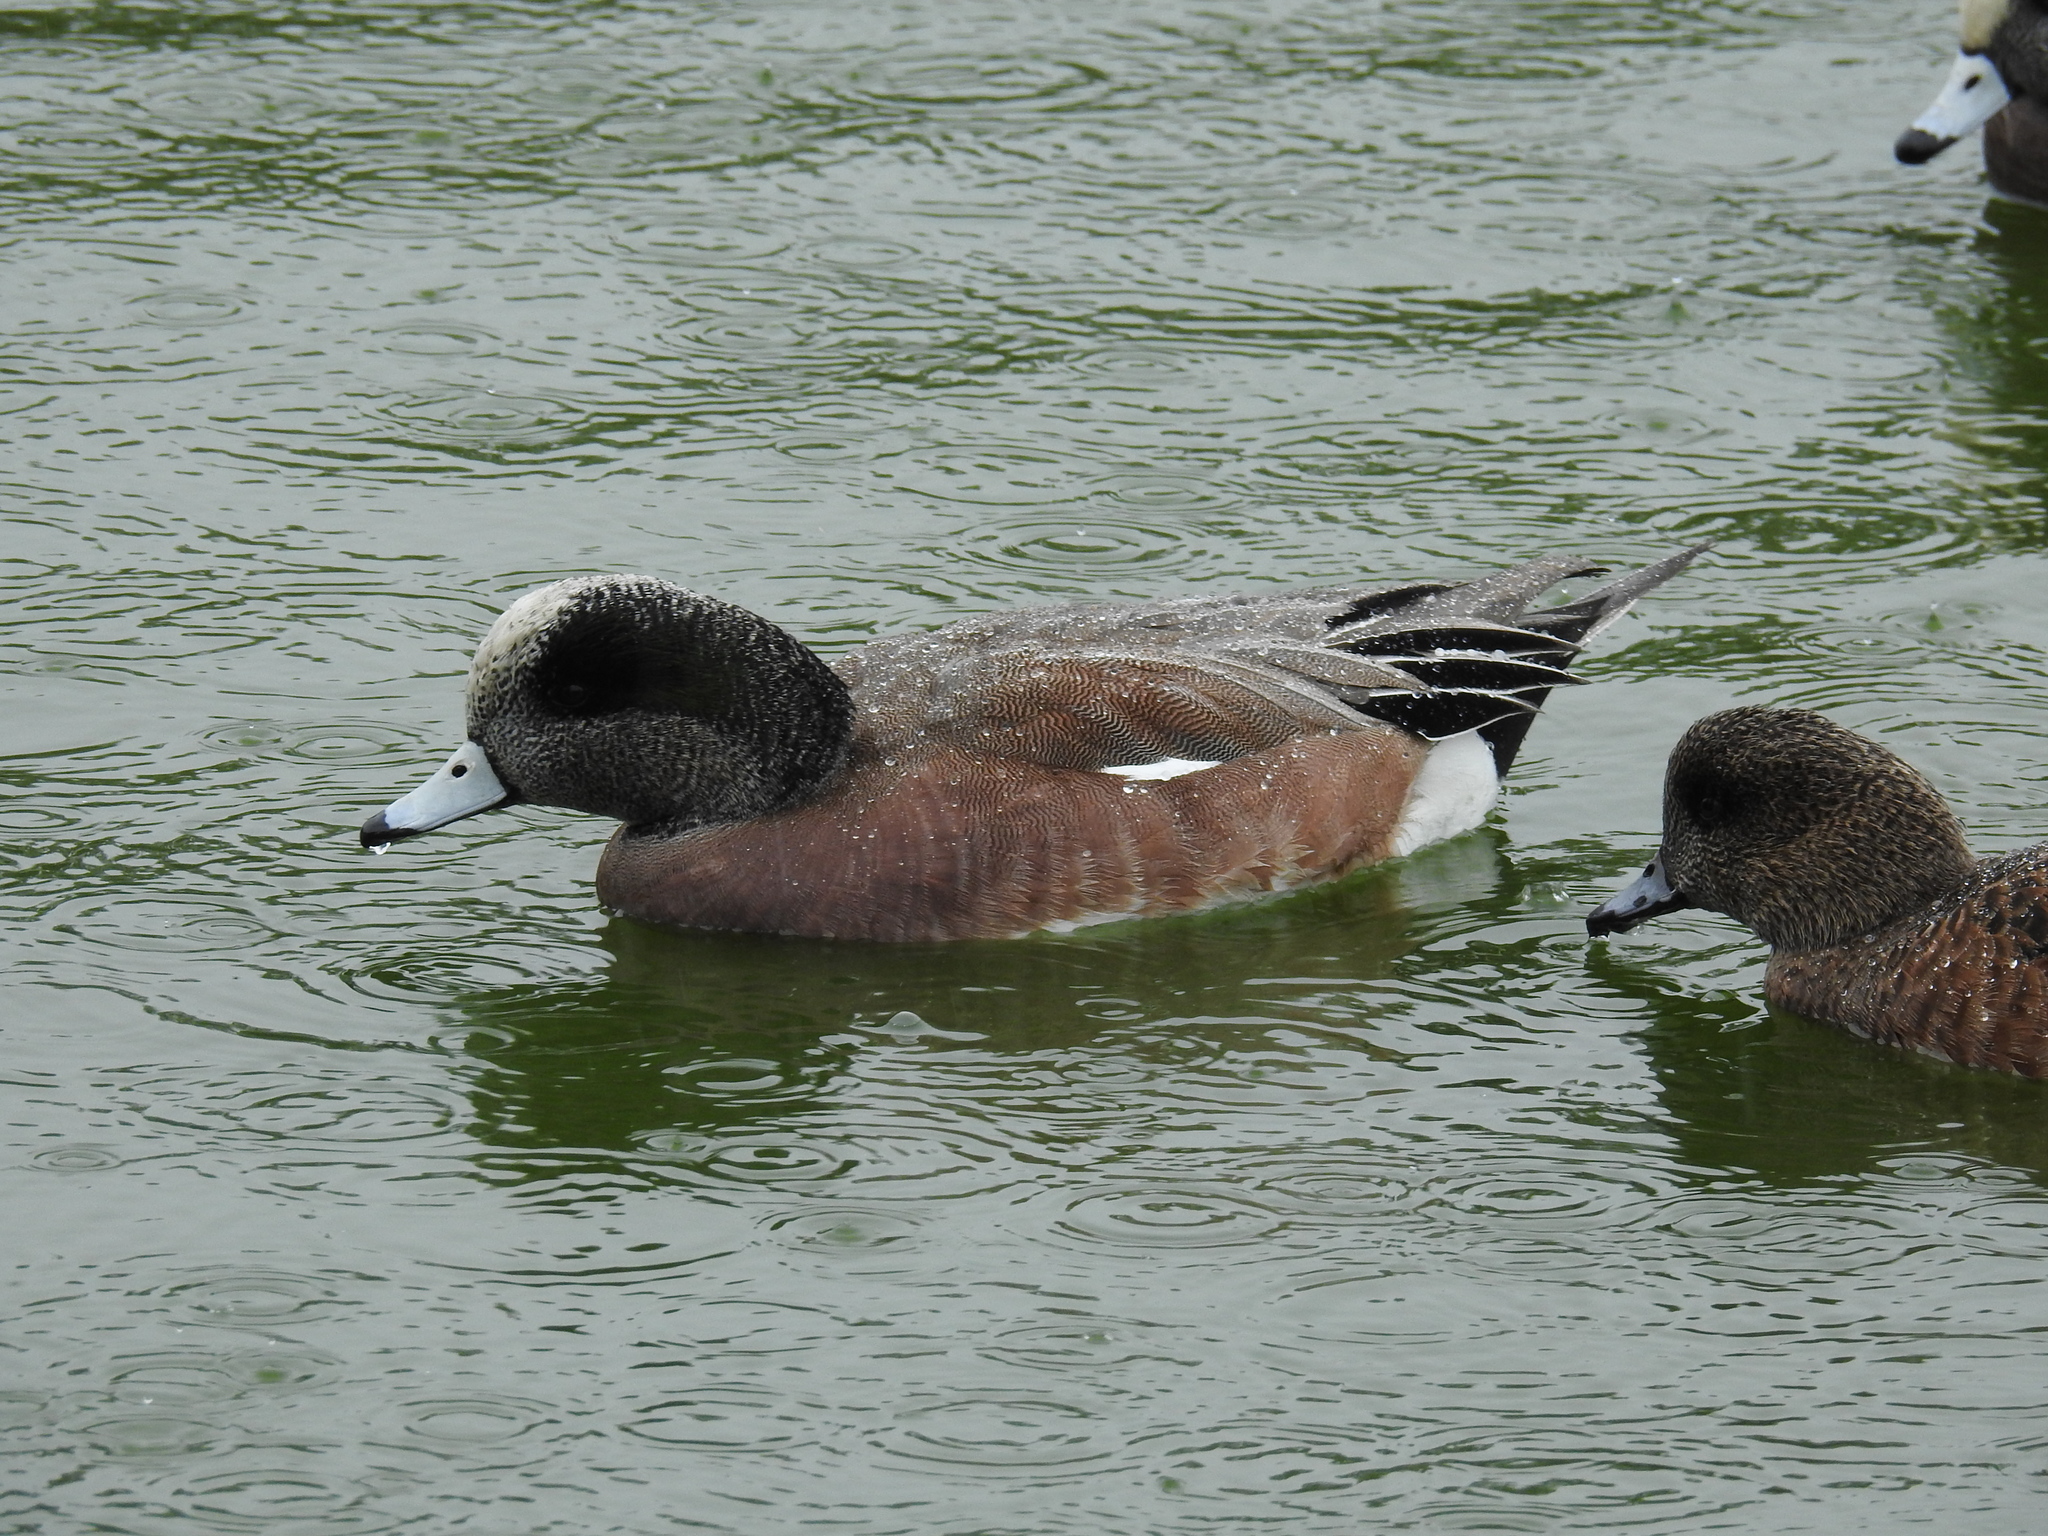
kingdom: Animalia
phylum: Chordata
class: Aves
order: Anseriformes
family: Anatidae
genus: Mareca
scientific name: Mareca americana
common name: American wigeon
